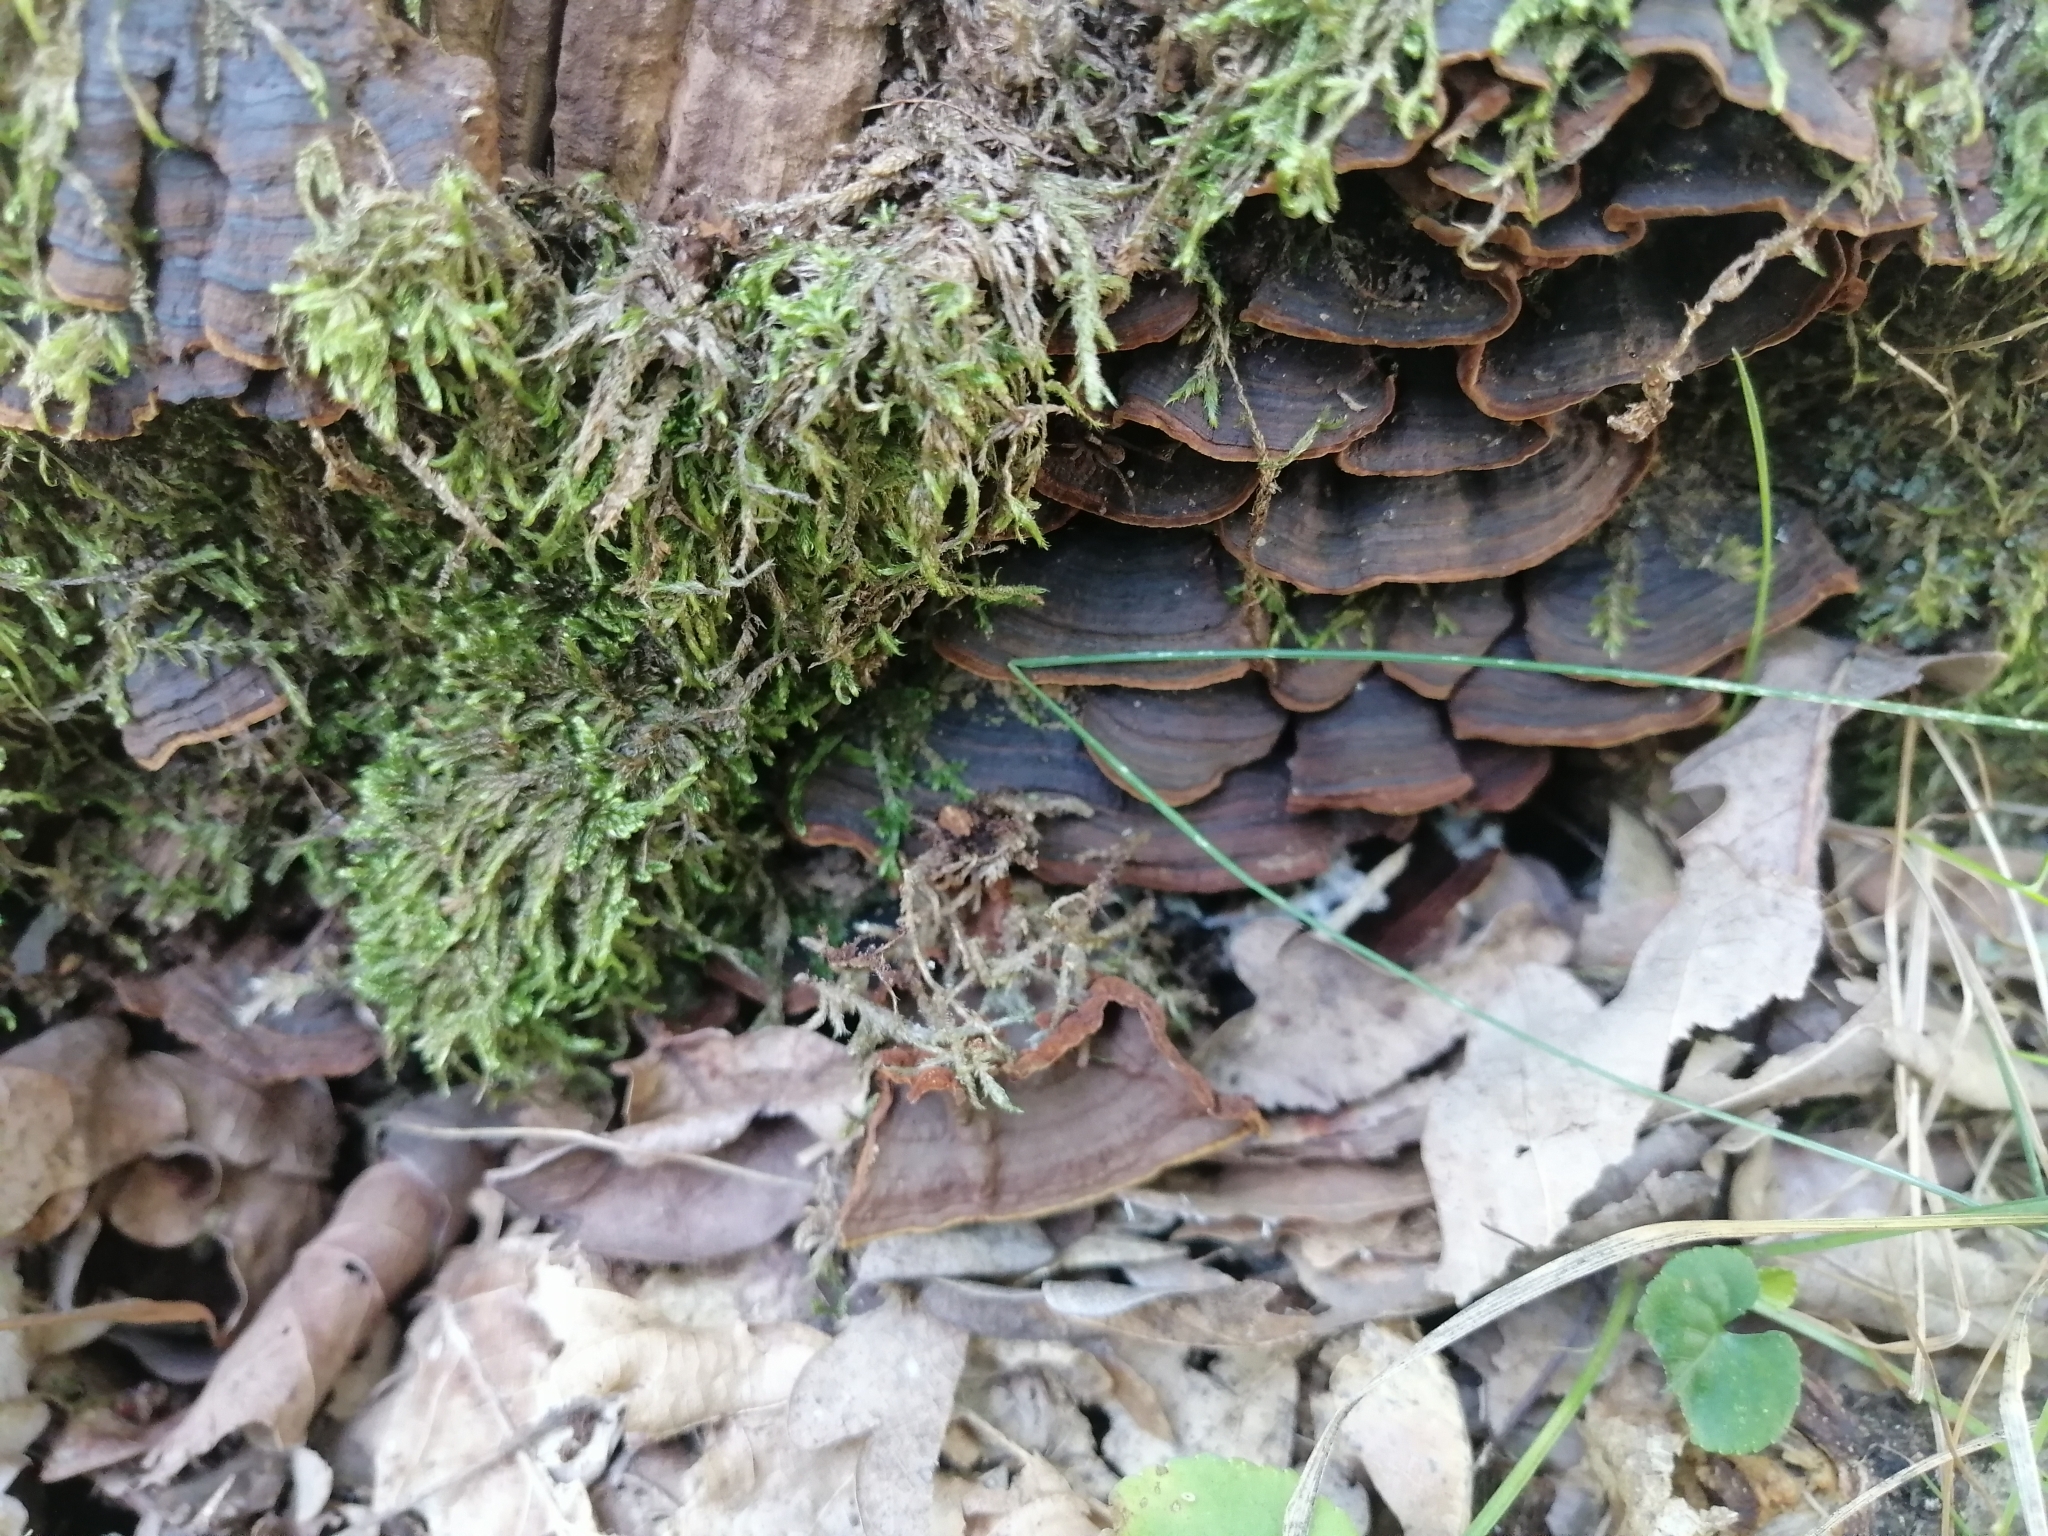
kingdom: Fungi
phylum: Basidiomycota
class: Agaricomycetes
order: Hymenochaetales
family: Hymenochaetaceae
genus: Hymenochaete
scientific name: Hymenochaete rubiginosa
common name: Oak curtain crust
